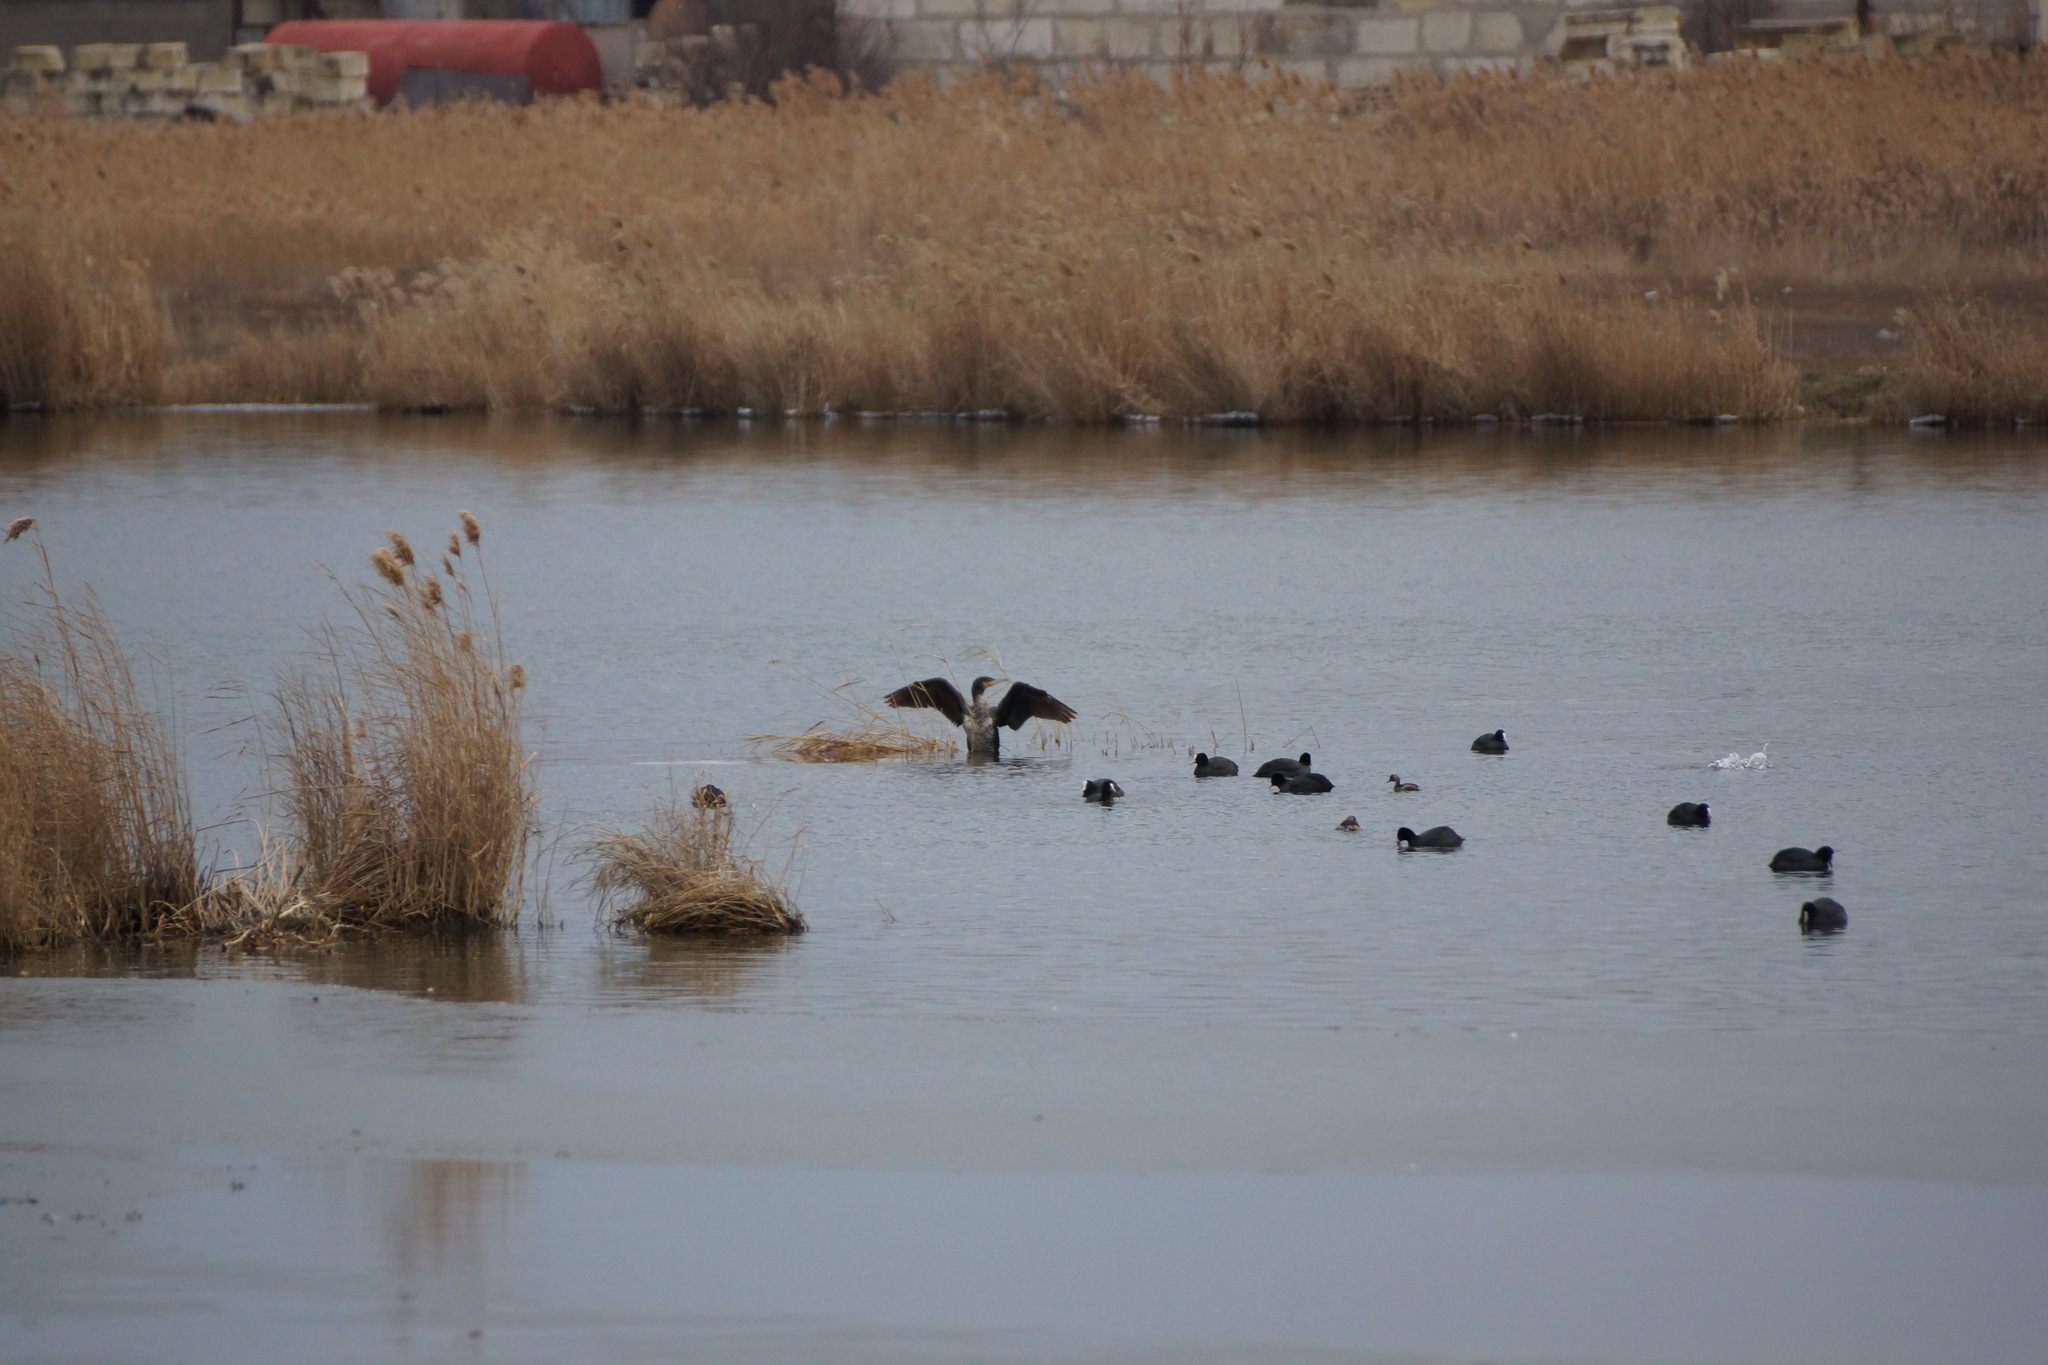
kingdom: Animalia
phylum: Chordata
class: Aves
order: Suliformes
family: Phalacrocoracidae
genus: Phalacrocorax
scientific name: Phalacrocorax carbo
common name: Great cormorant
